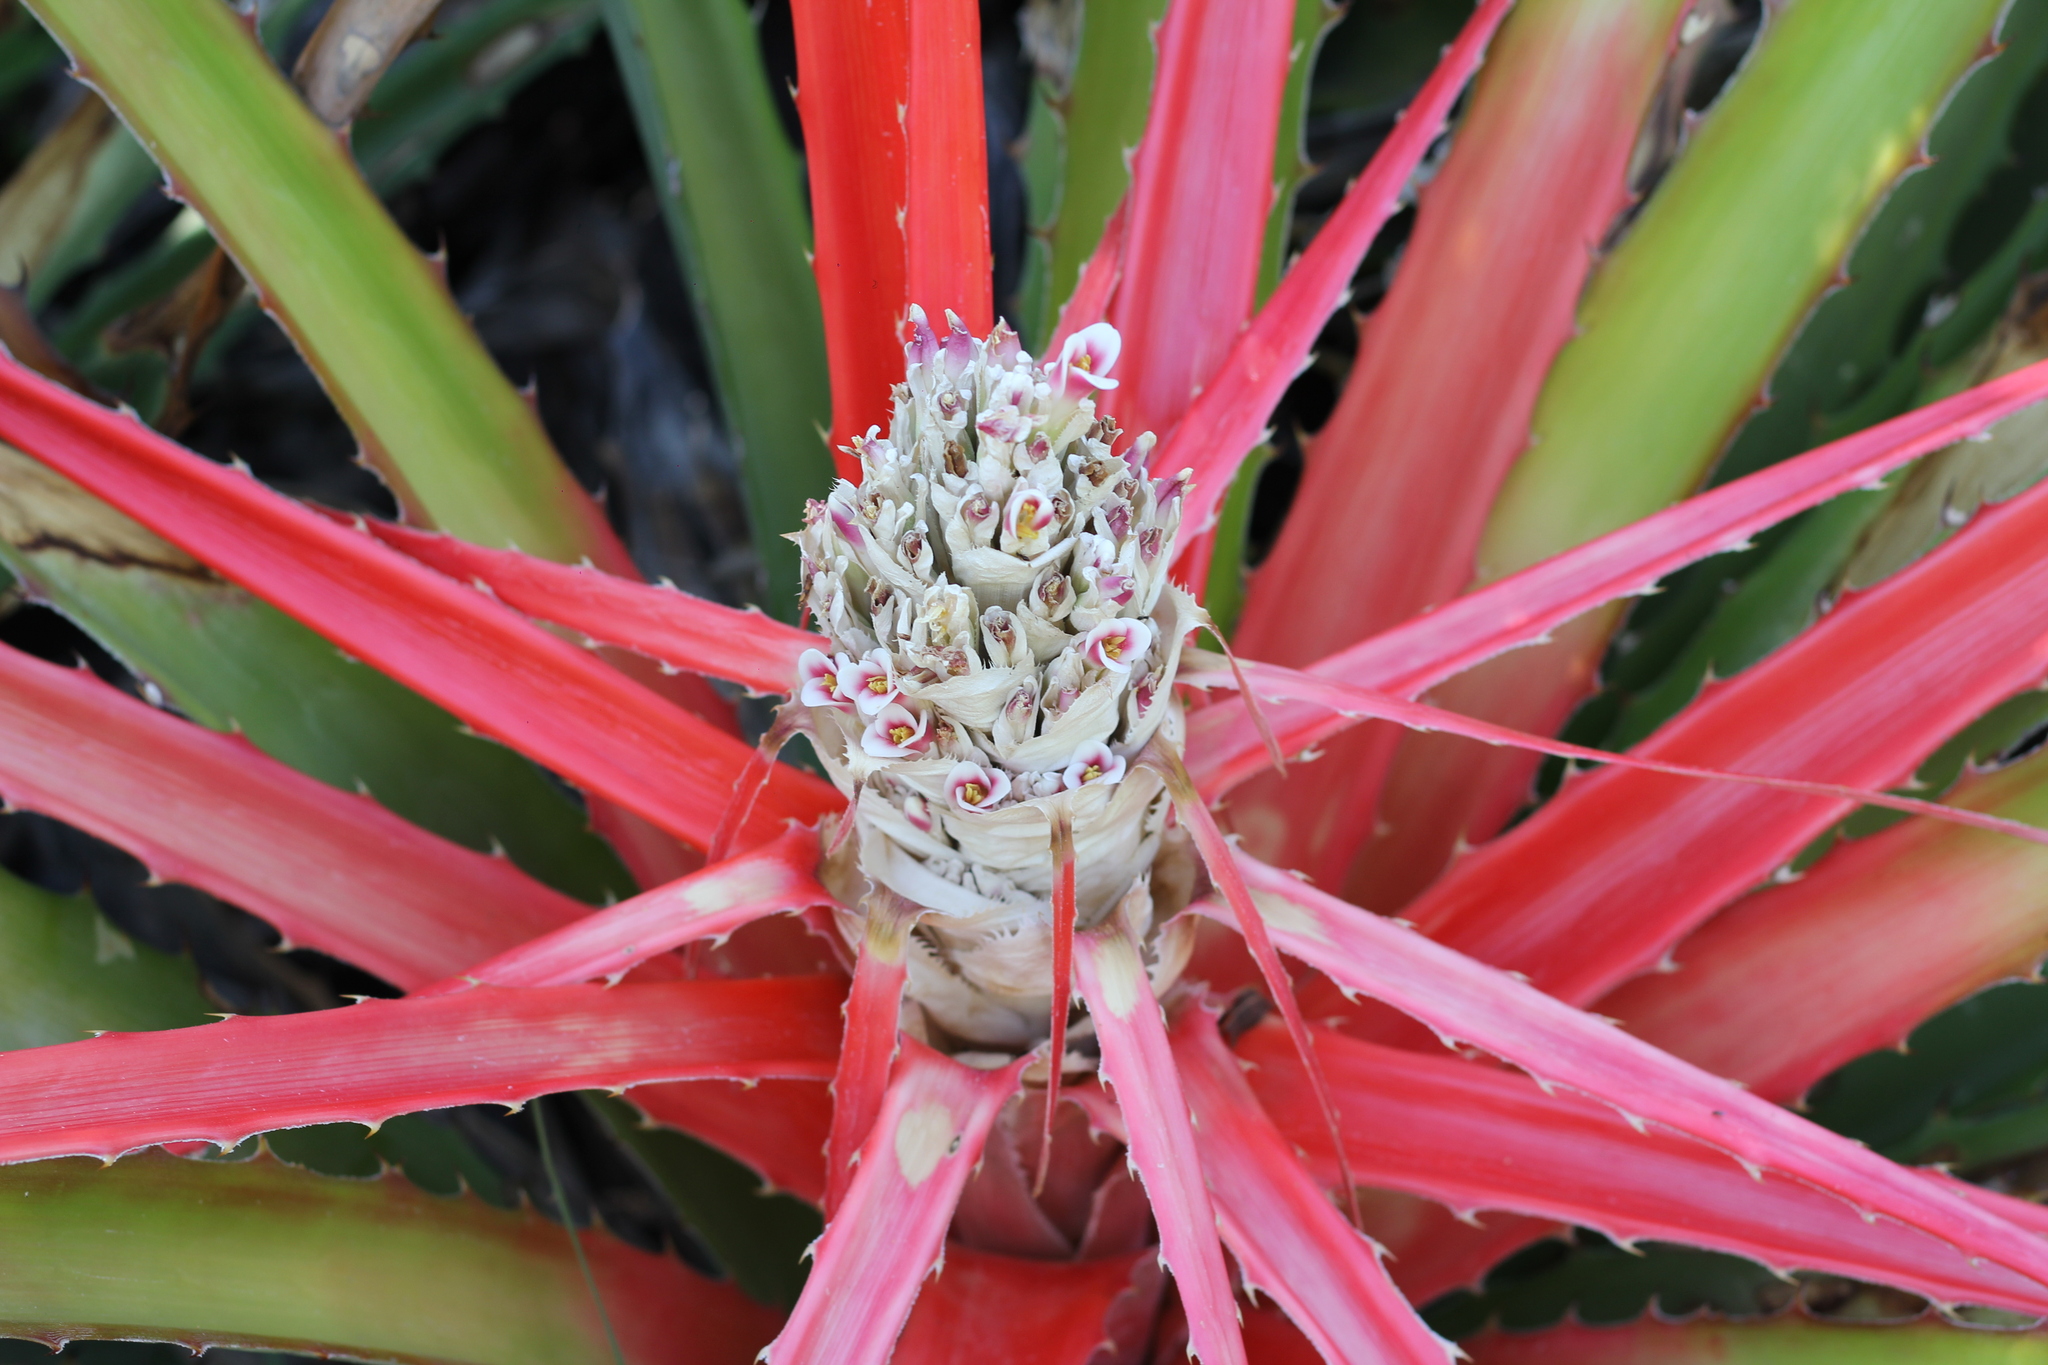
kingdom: Plantae
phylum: Tracheophyta
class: Liliopsida
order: Poales
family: Bromeliaceae
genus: Bromelia
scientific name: Bromelia balansae
